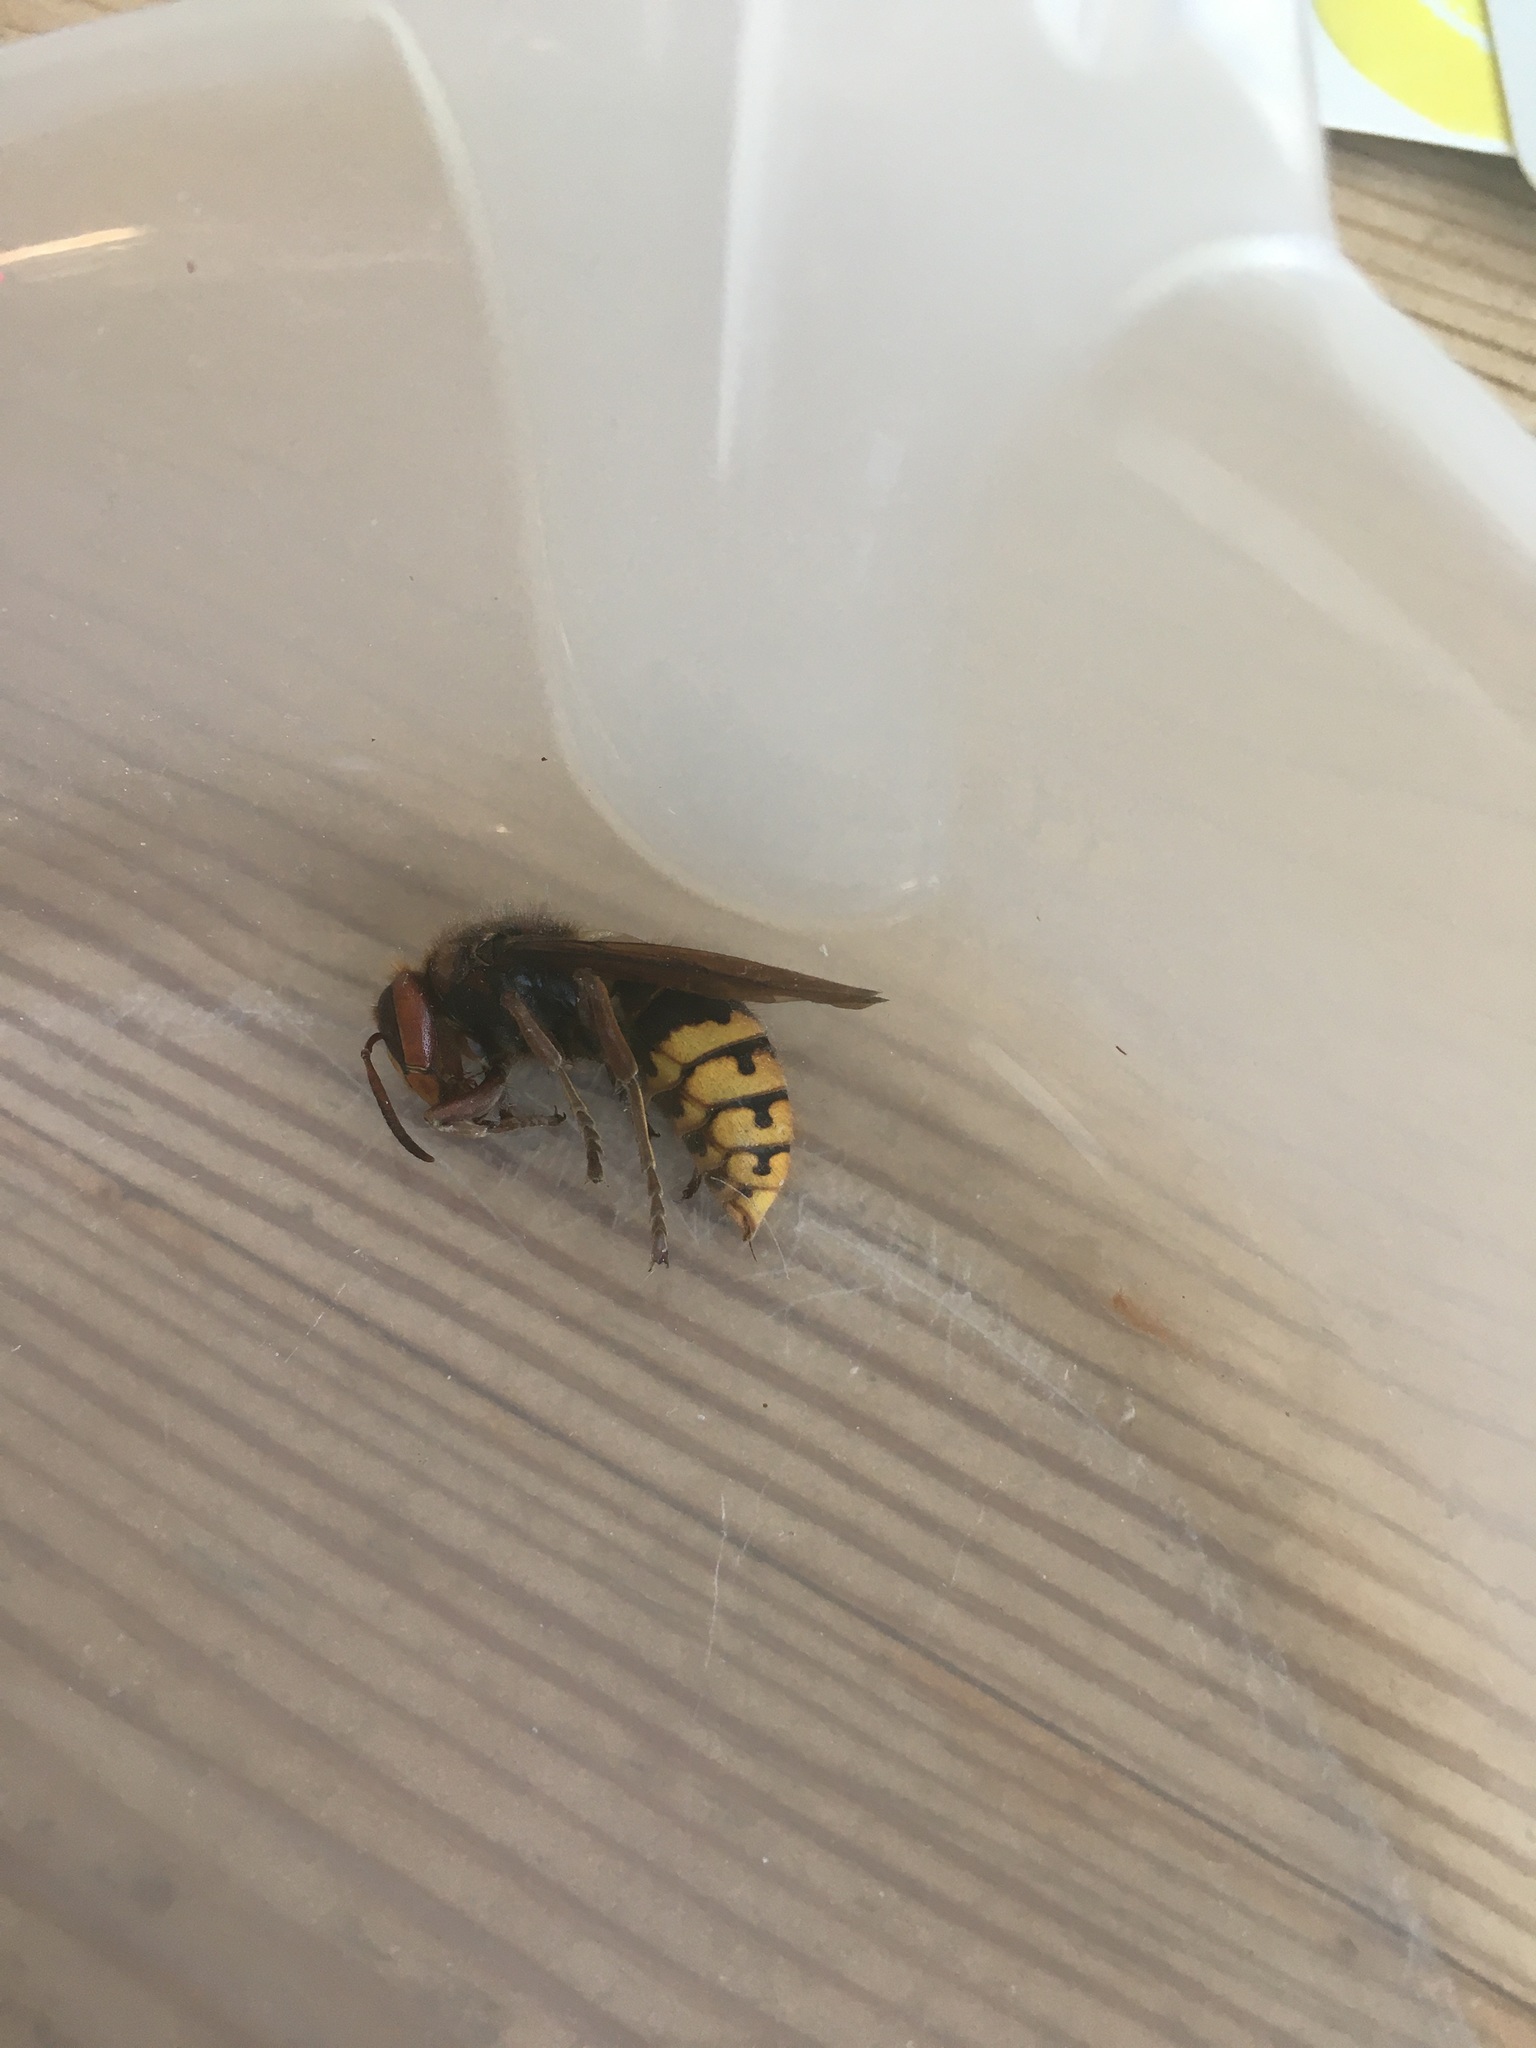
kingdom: Animalia
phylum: Arthropoda
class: Insecta
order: Hymenoptera
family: Vespidae
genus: Vespa
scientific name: Vespa crabro
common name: Hornet
